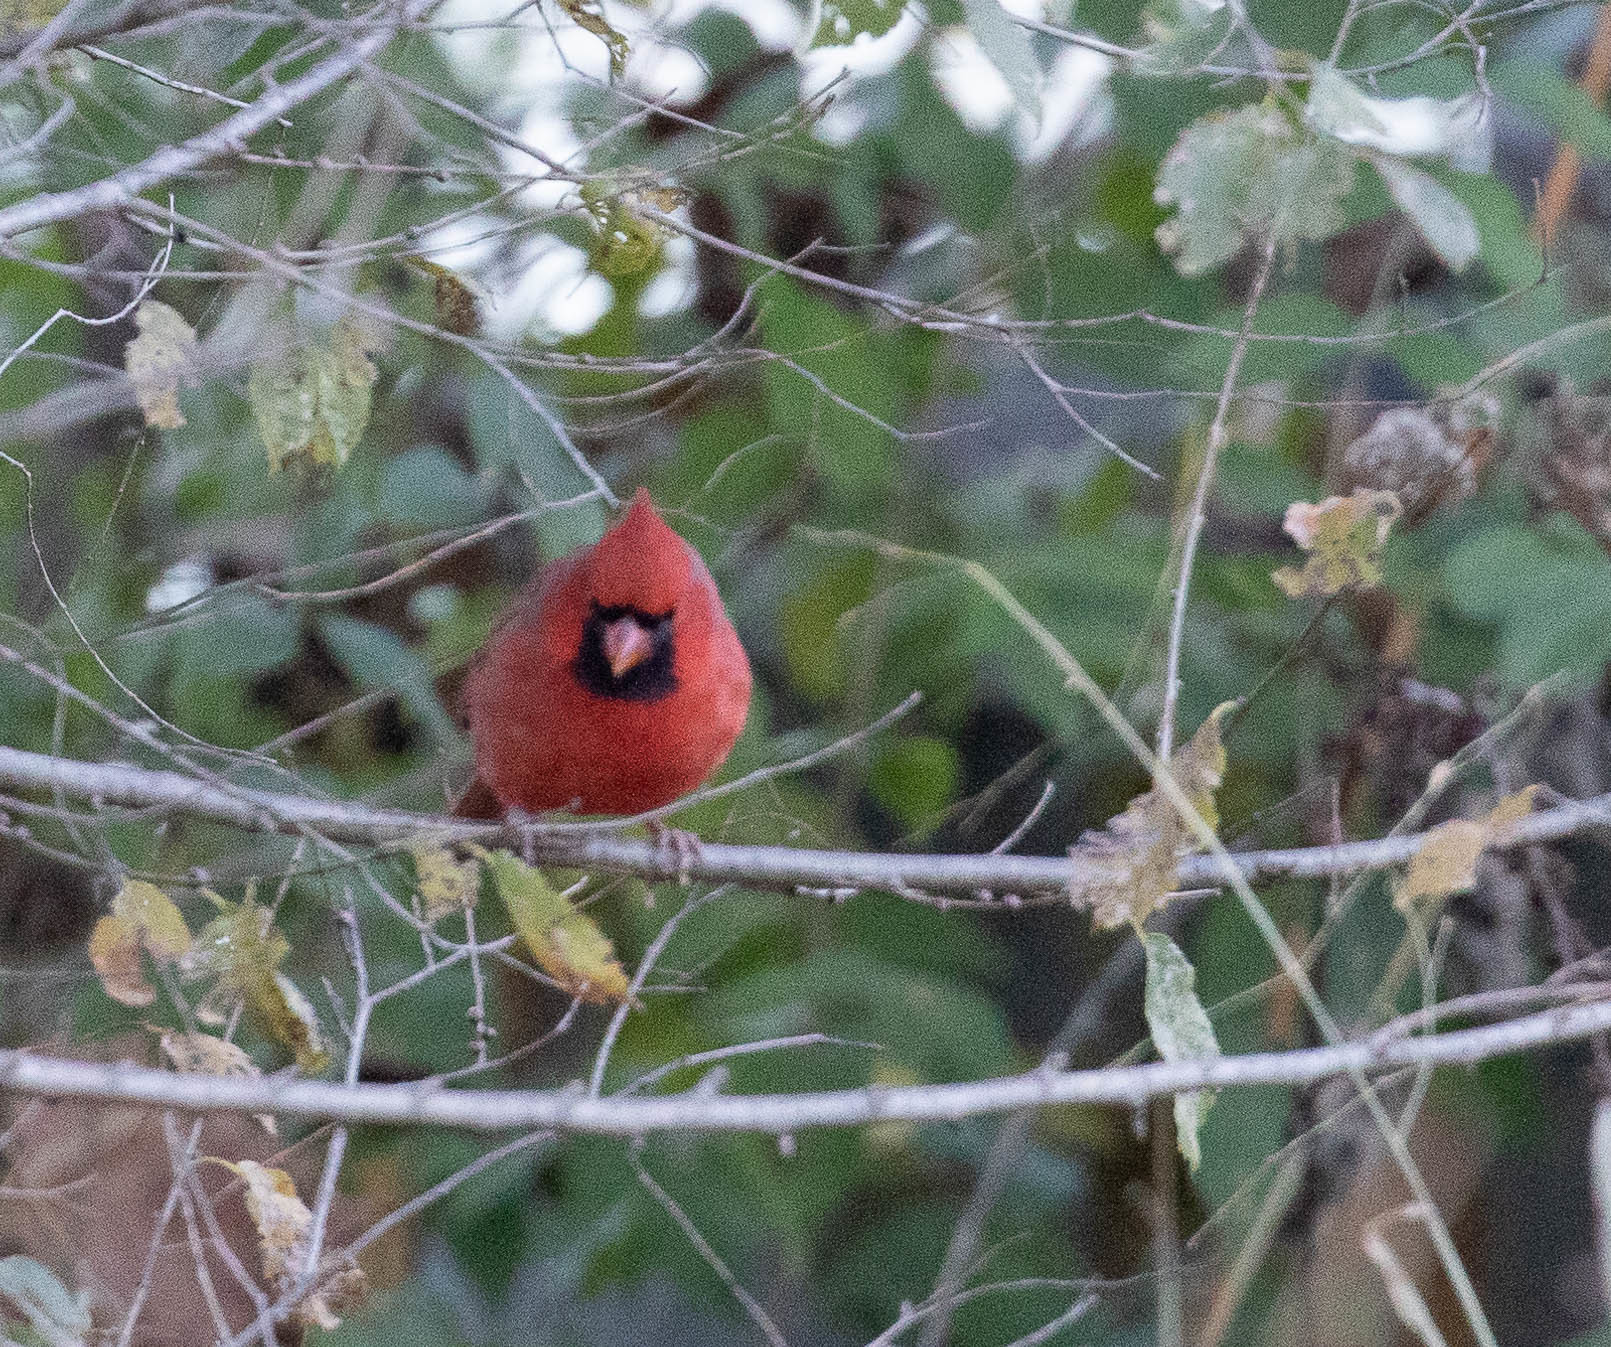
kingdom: Animalia
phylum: Chordata
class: Aves
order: Passeriformes
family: Cardinalidae
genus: Cardinalis
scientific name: Cardinalis cardinalis
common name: Northern cardinal
